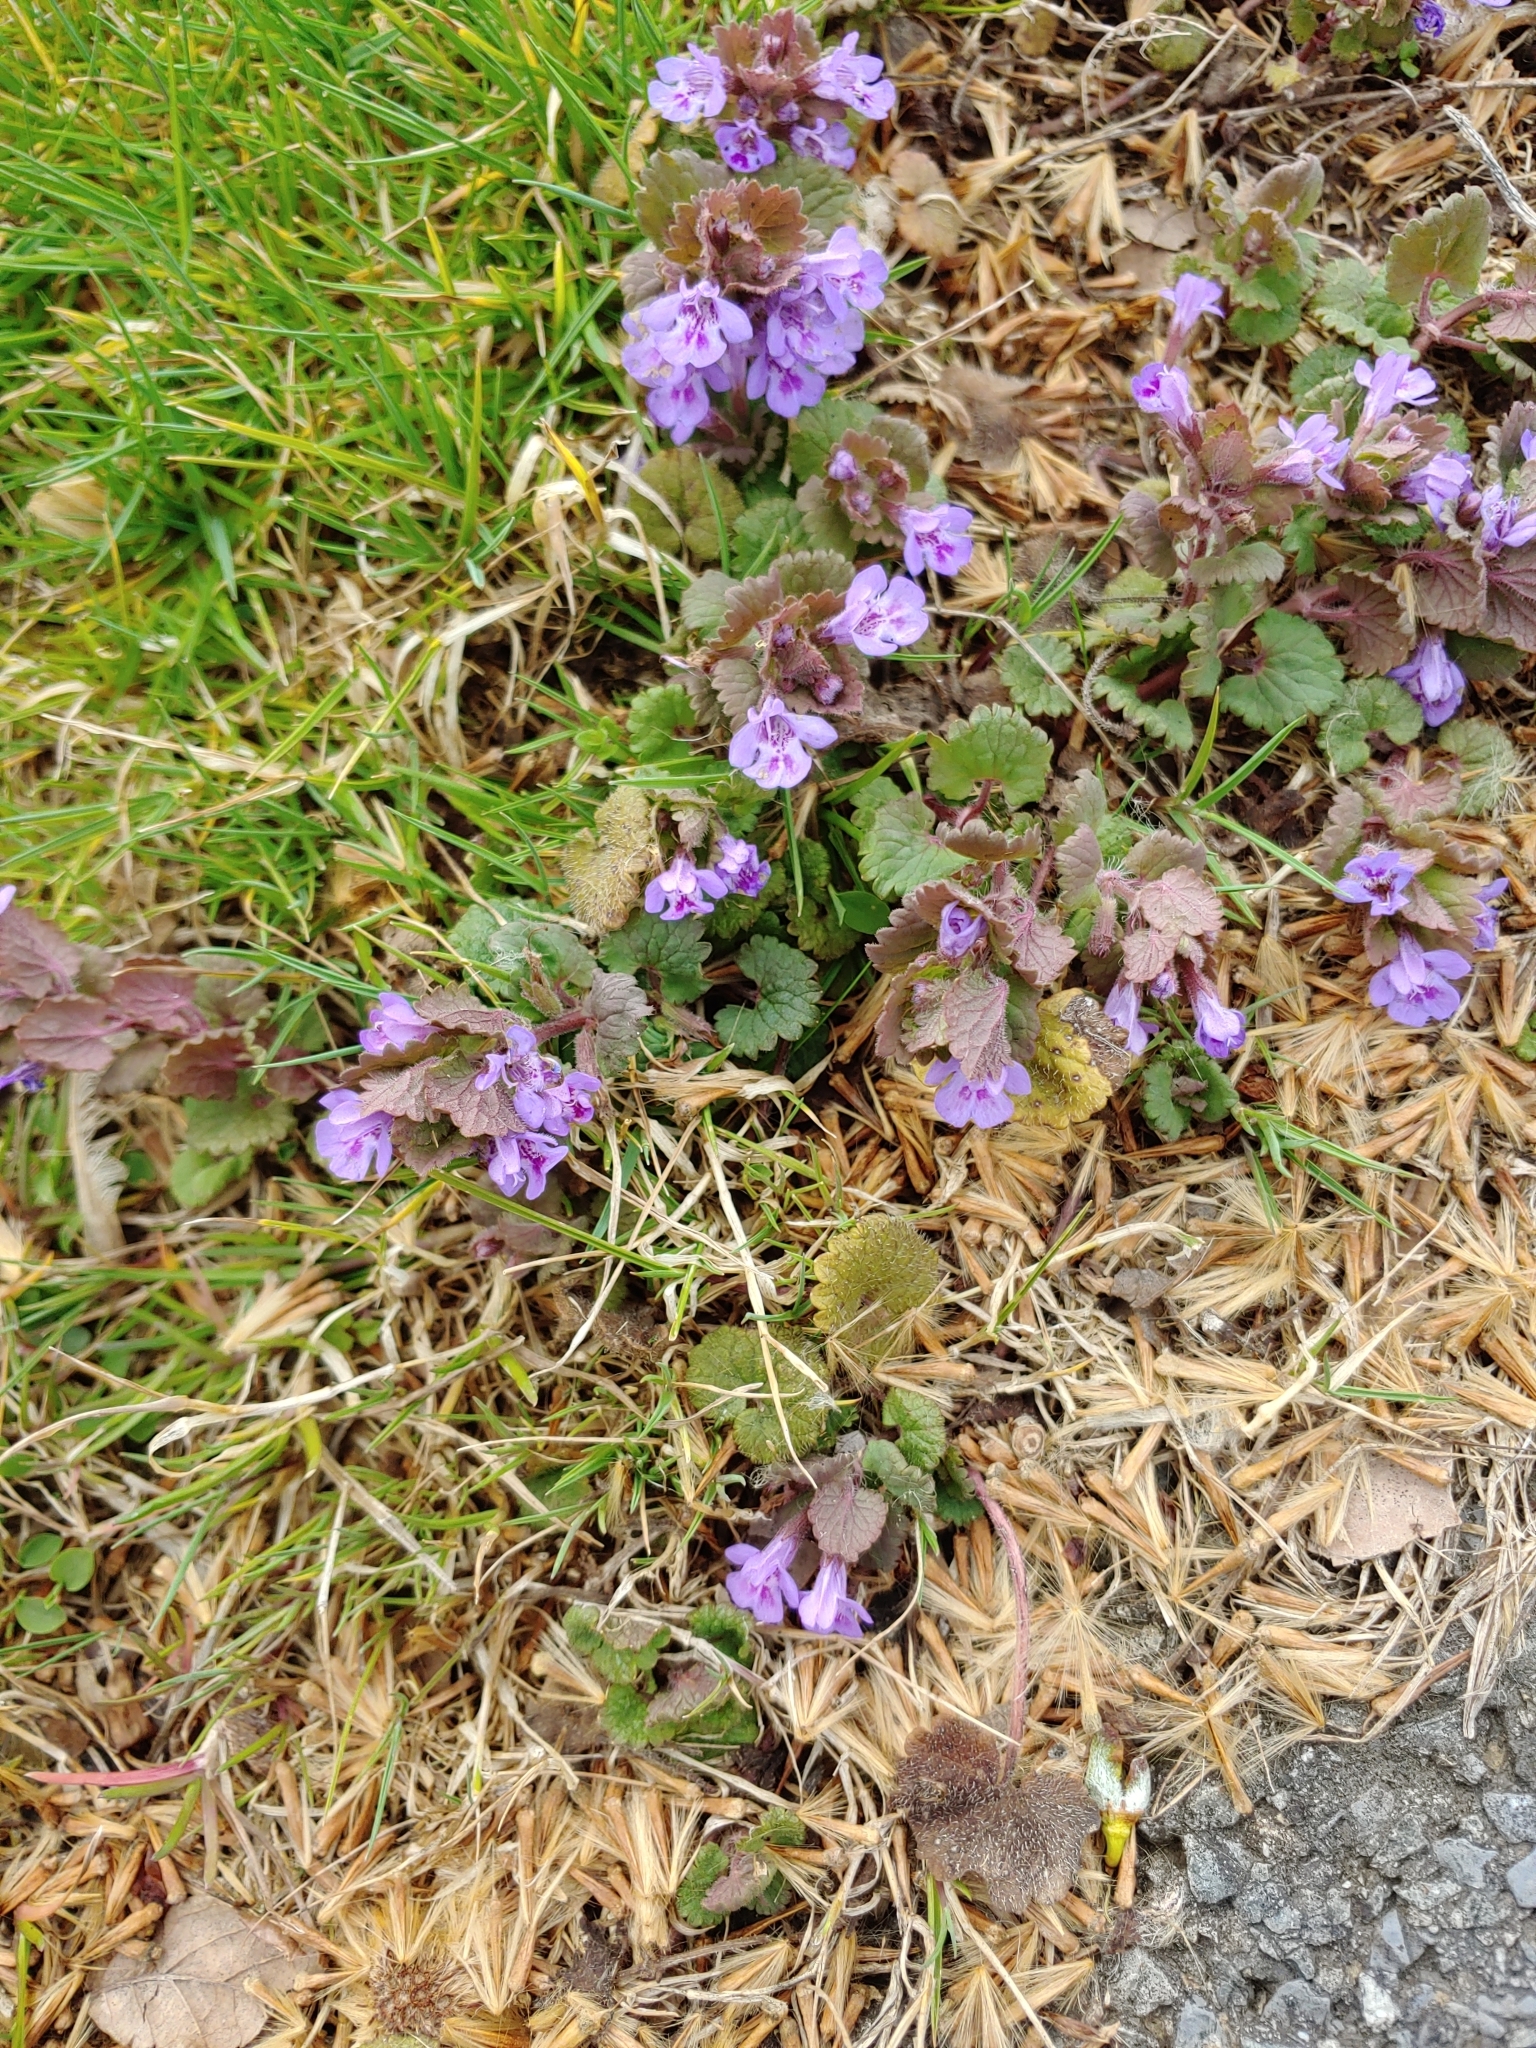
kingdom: Plantae
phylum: Tracheophyta
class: Magnoliopsida
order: Lamiales
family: Lamiaceae
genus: Glechoma
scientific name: Glechoma hederacea
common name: Ground ivy
